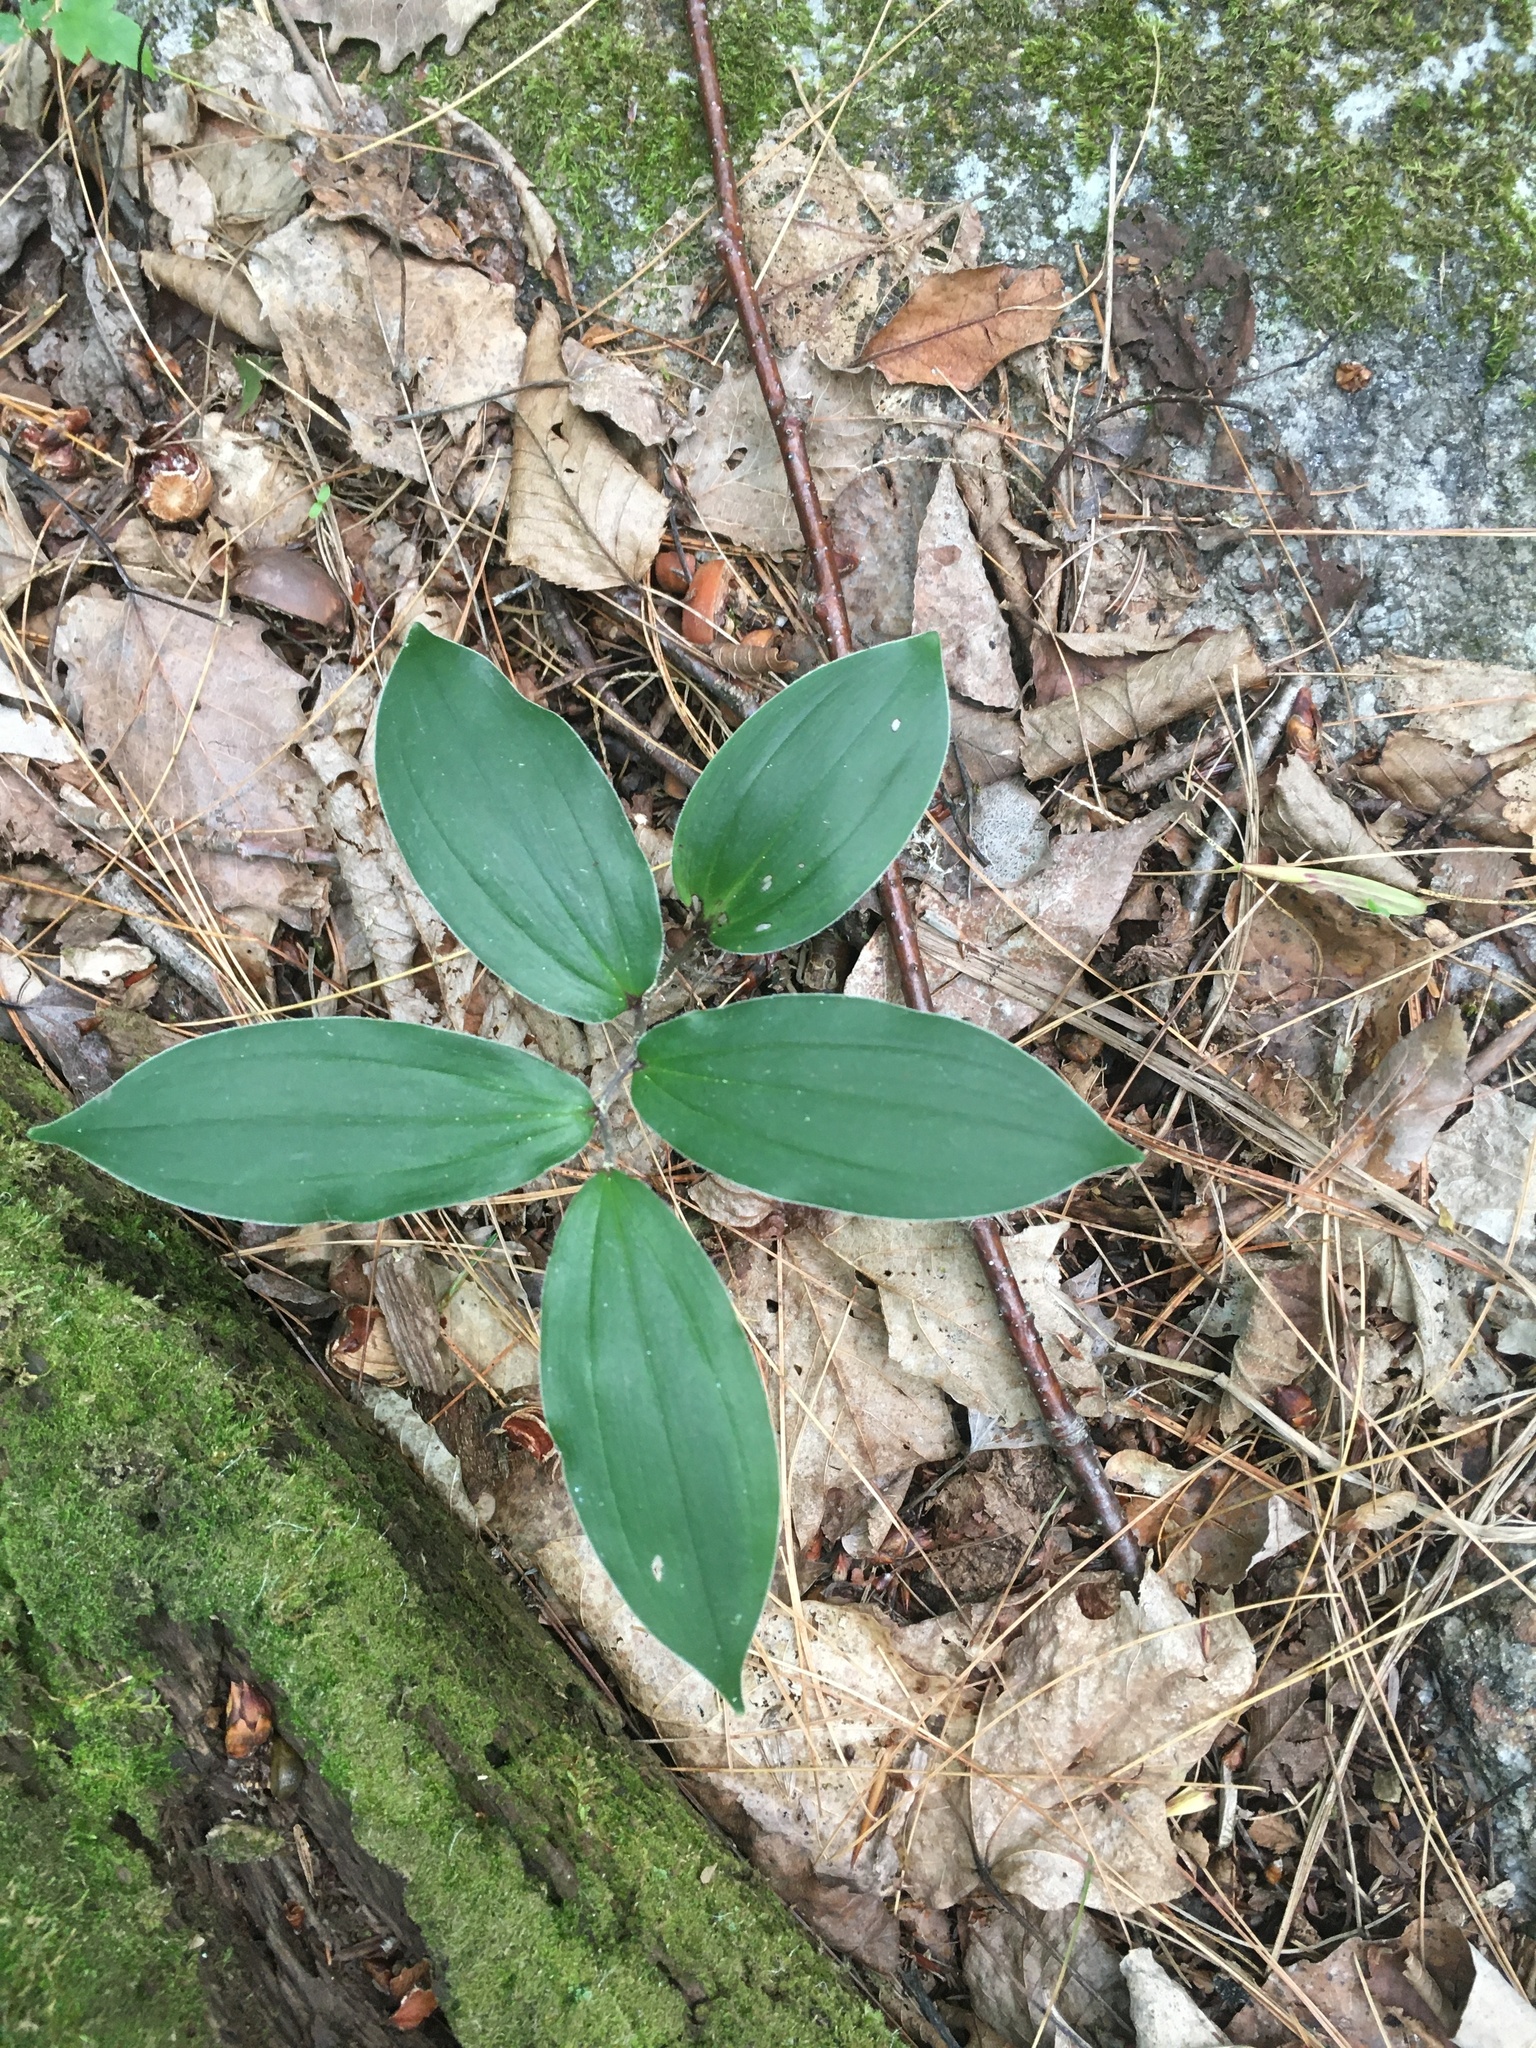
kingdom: Plantae
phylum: Tracheophyta
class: Liliopsida
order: Asparagales
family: Asparagaceae
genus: Maianthemum
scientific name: Maianthemum racemosum
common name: False spikenard
